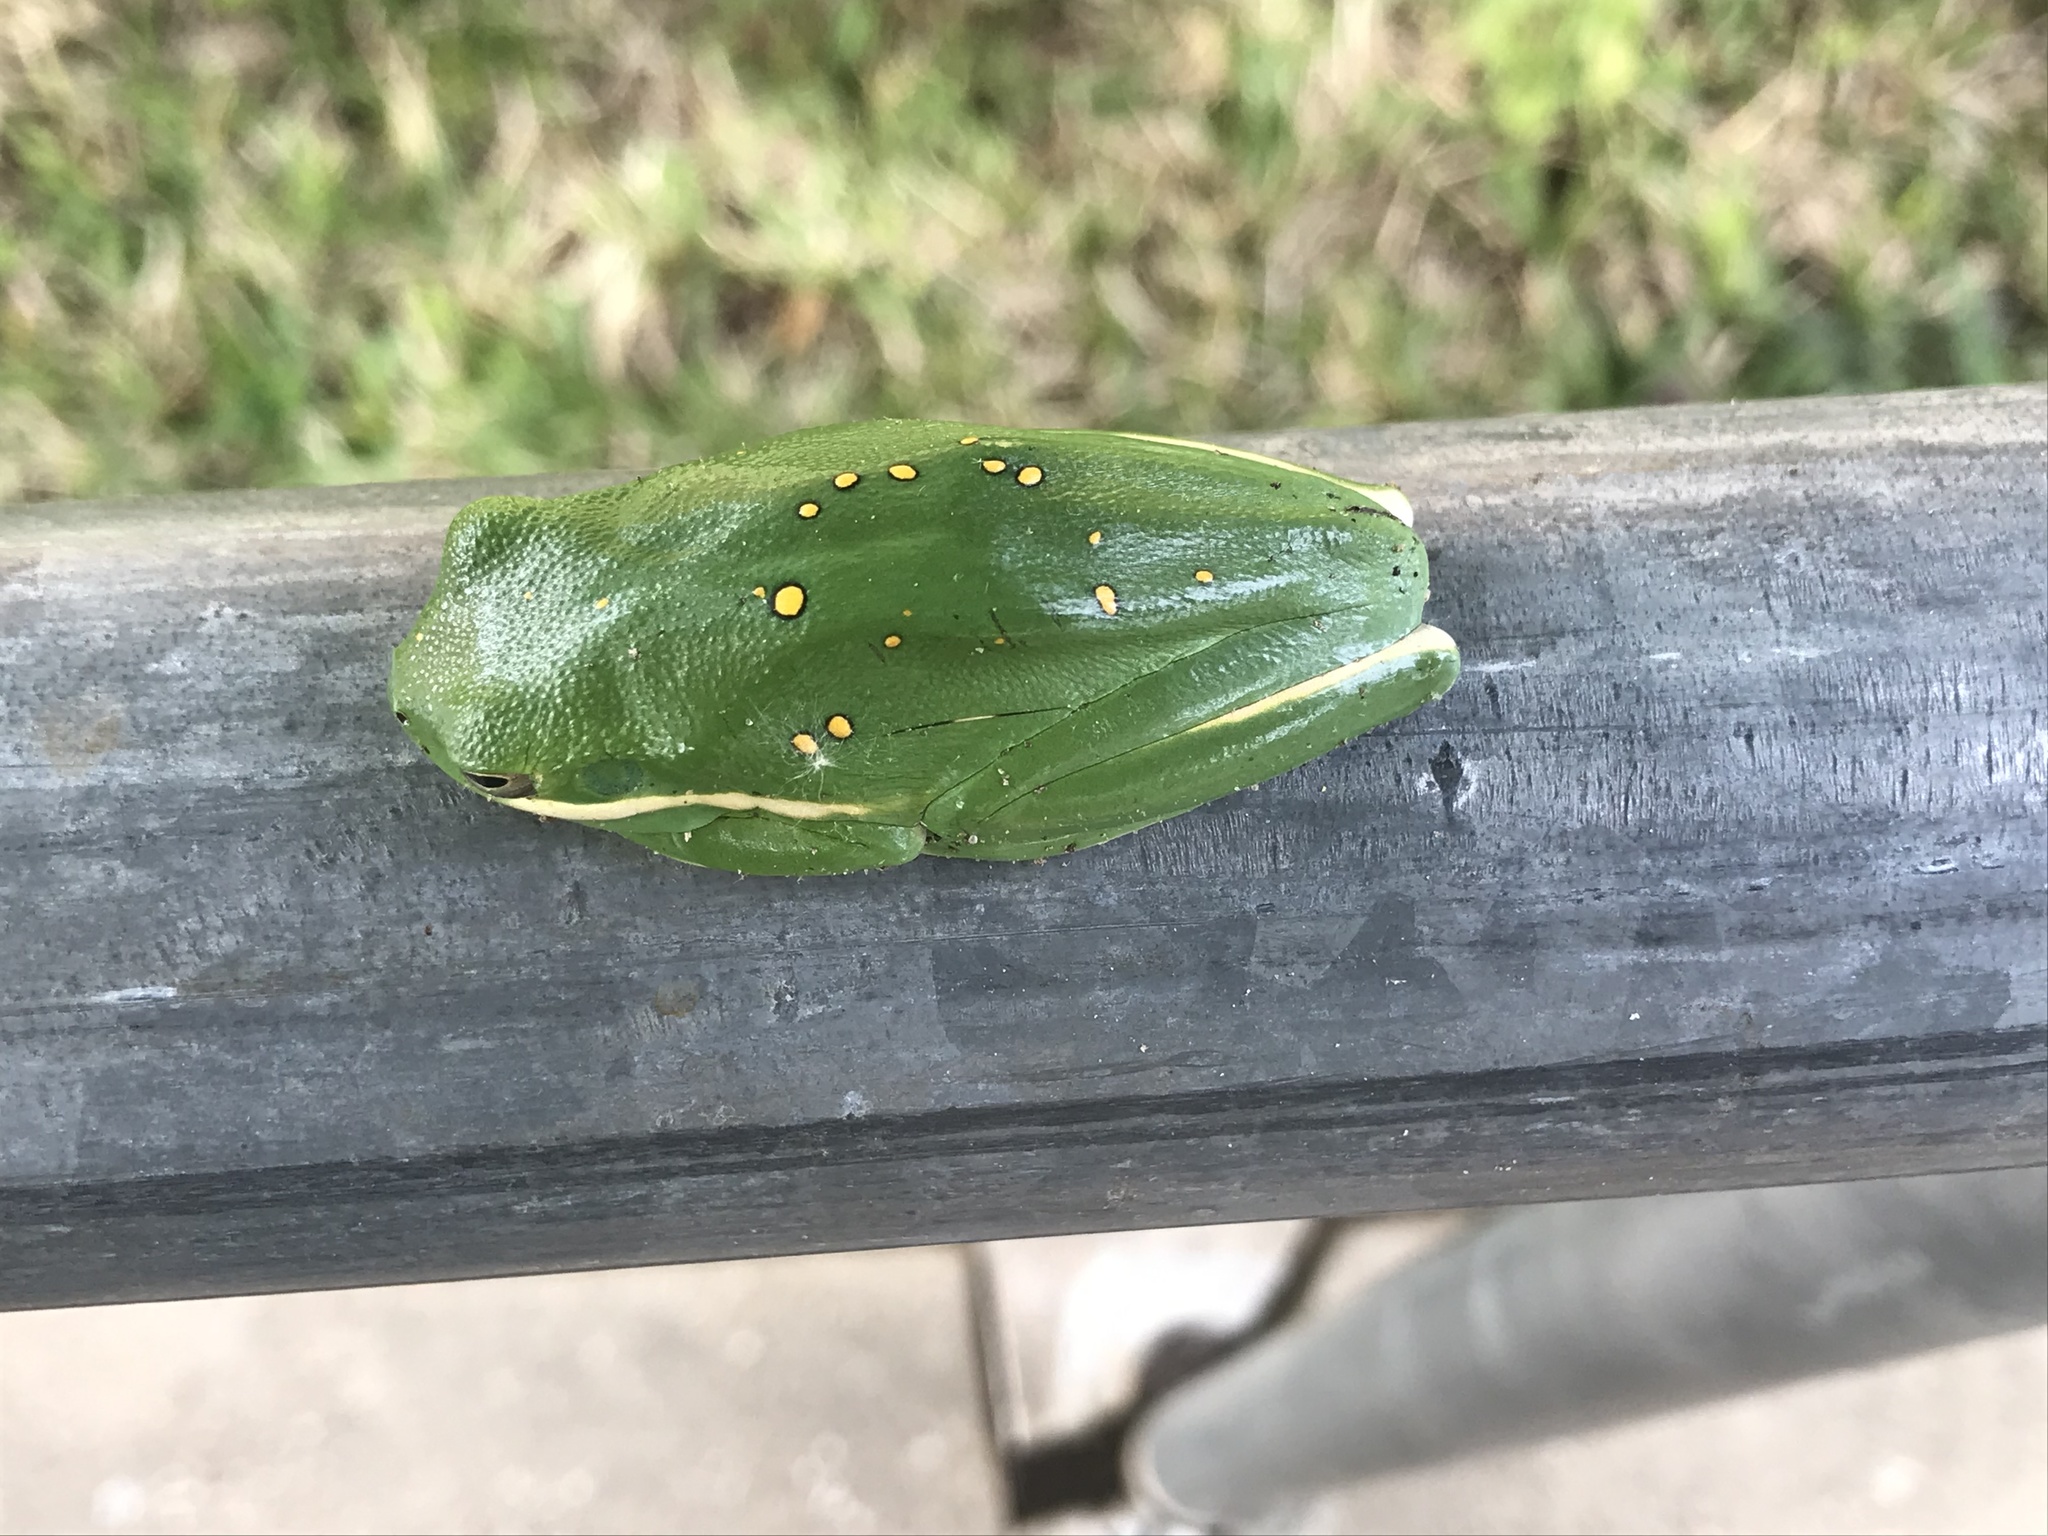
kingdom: Animalia
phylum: Chordata
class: Amphibia
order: Anura
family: Hylidae
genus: Dryophytes
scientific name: Dryophytes cinereus
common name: Green treefrog
